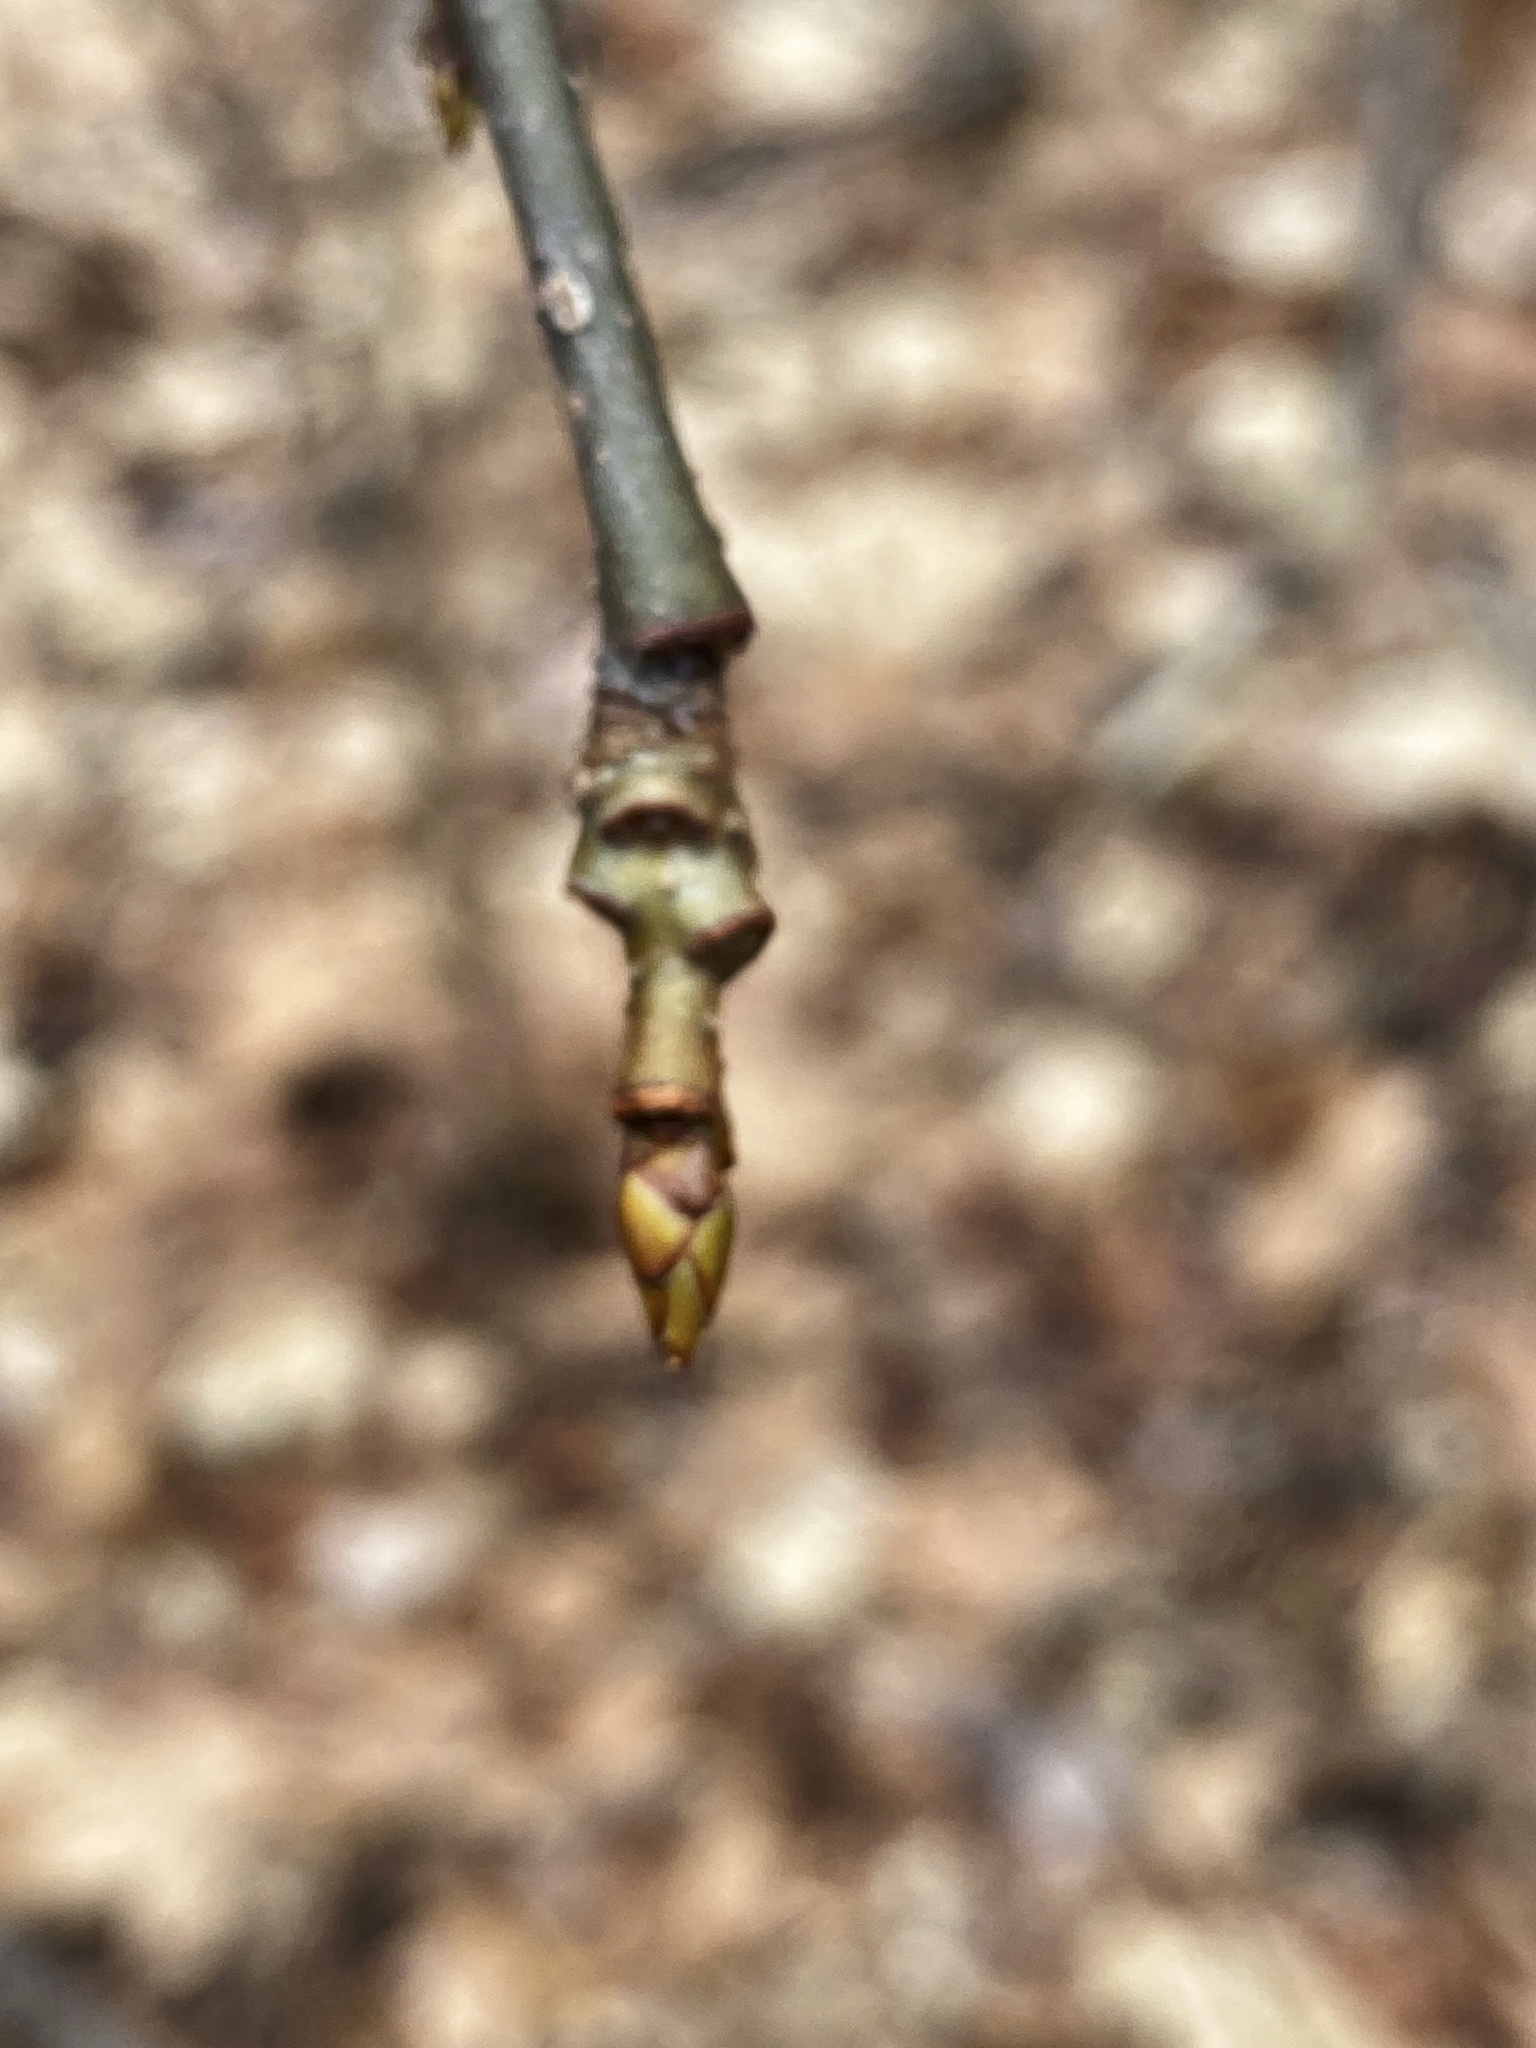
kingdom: Plantae
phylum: Tracheophyta
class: Magnoliopsida
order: Saxifragales
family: Altingiaceae
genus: Liquidambar
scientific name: Liquidambar styraciflua
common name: Sweet gum
